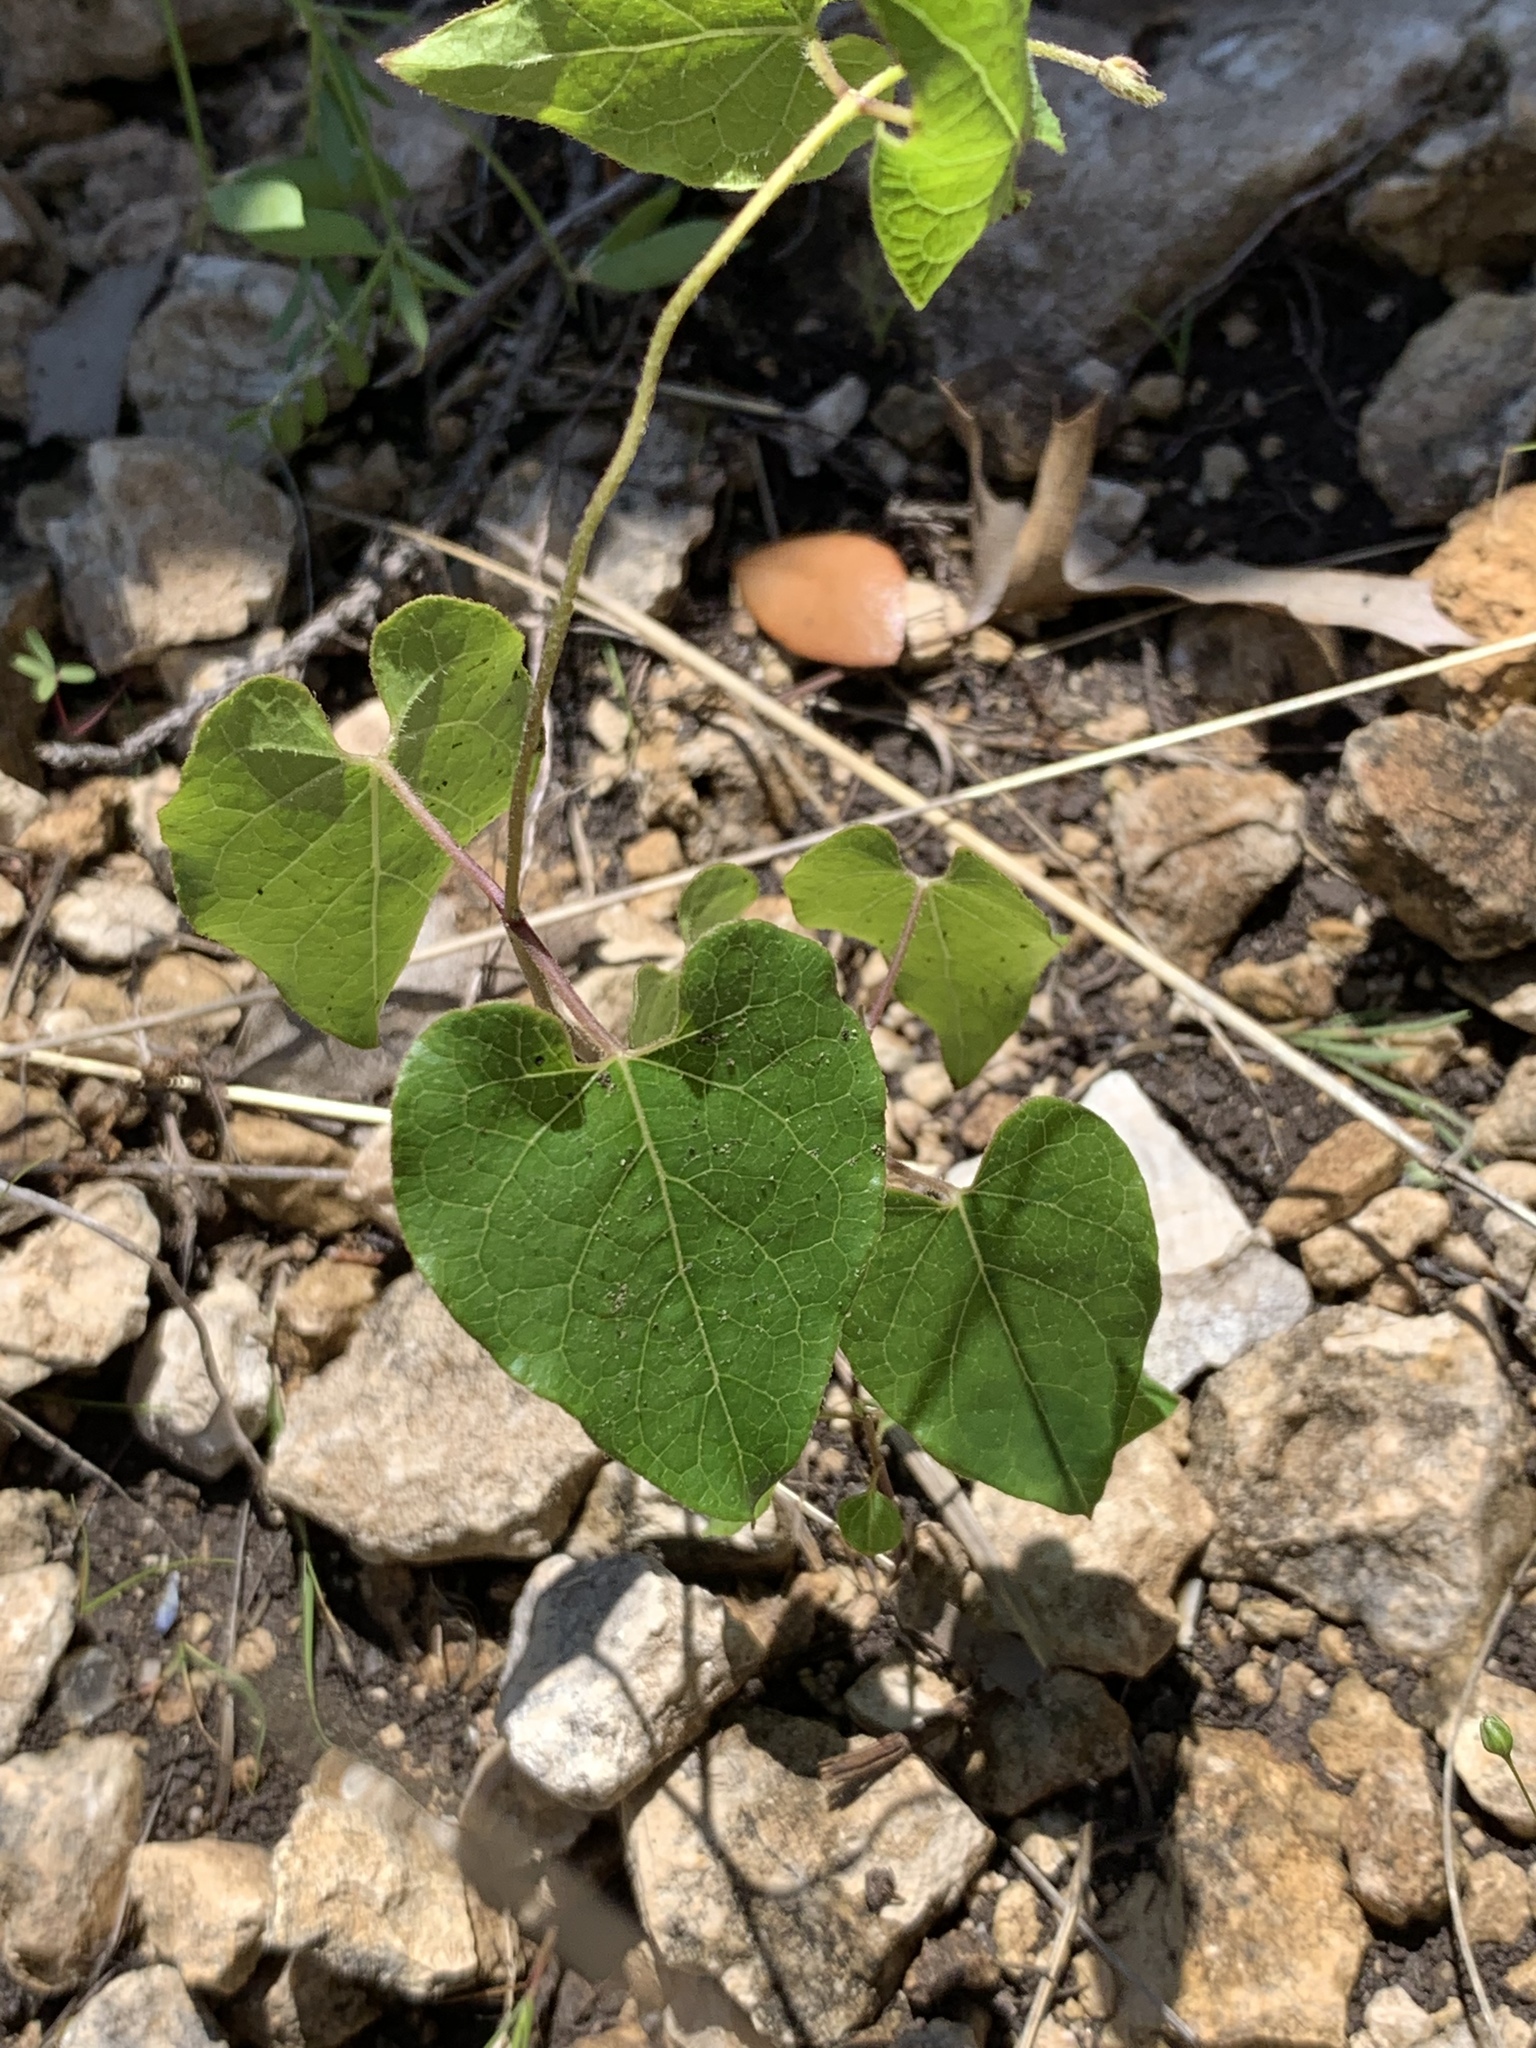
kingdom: Plantae
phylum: Tracheophyta
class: Magnoliopsida
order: Gentianales
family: Apocynaceae
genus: Matelea
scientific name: Matelea edwardsensis
